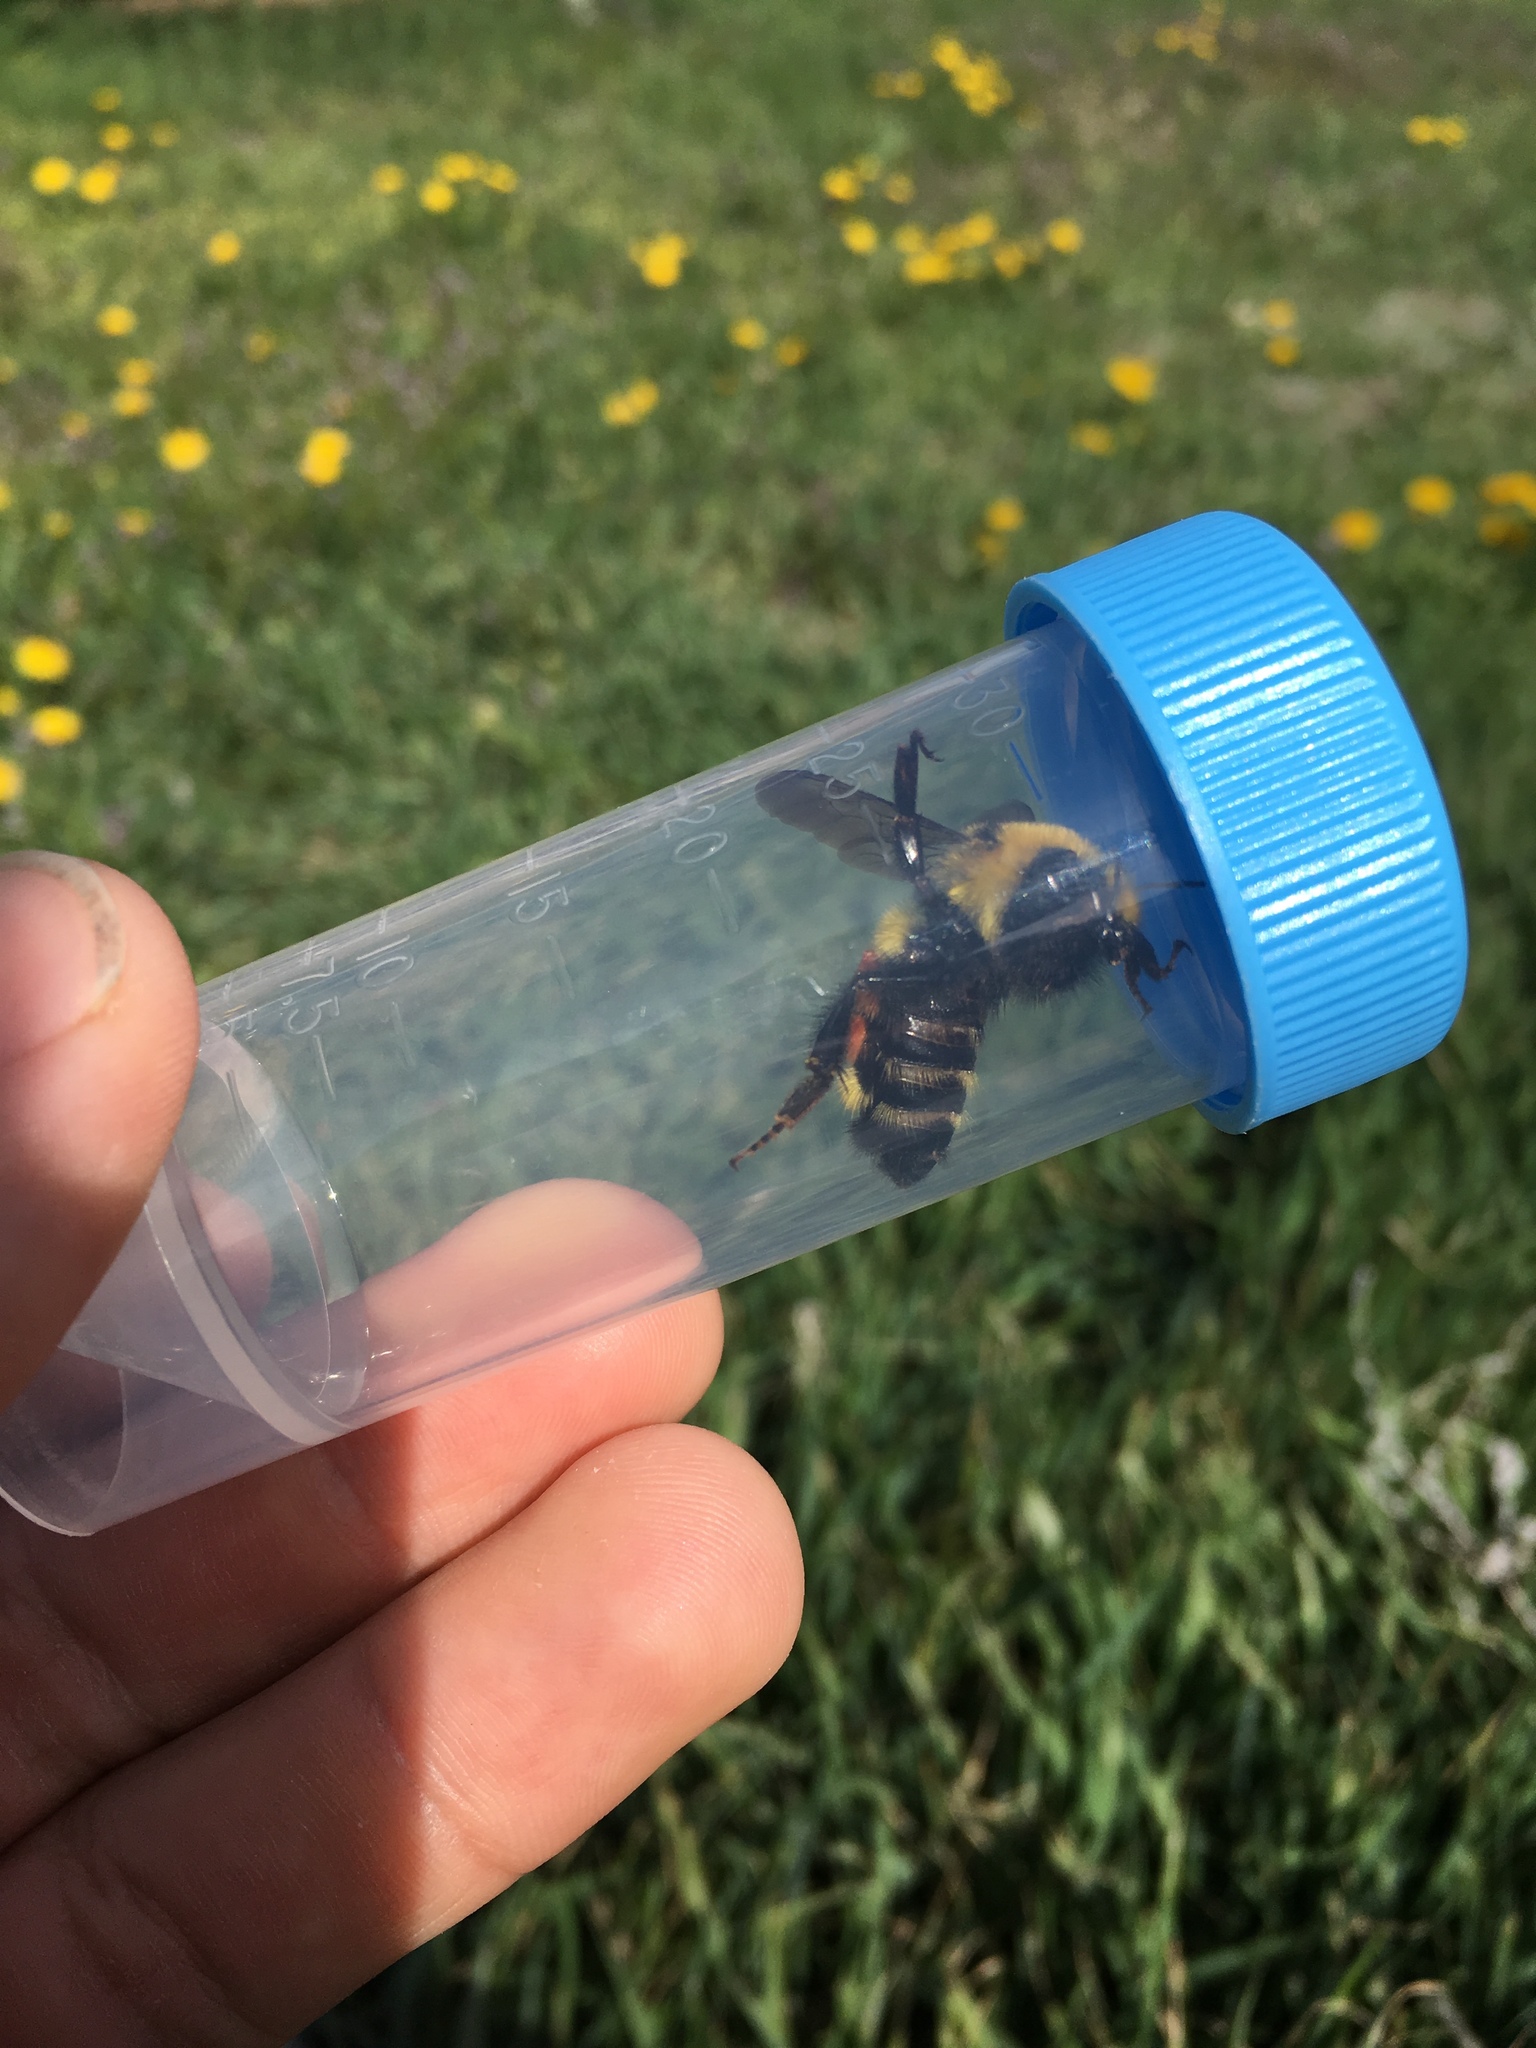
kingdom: Animalia
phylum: Arthropoda
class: Insecta
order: Hymenoptera
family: Apidae
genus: Bombus
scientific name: Bombus huntii
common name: Hunt bumble bee
